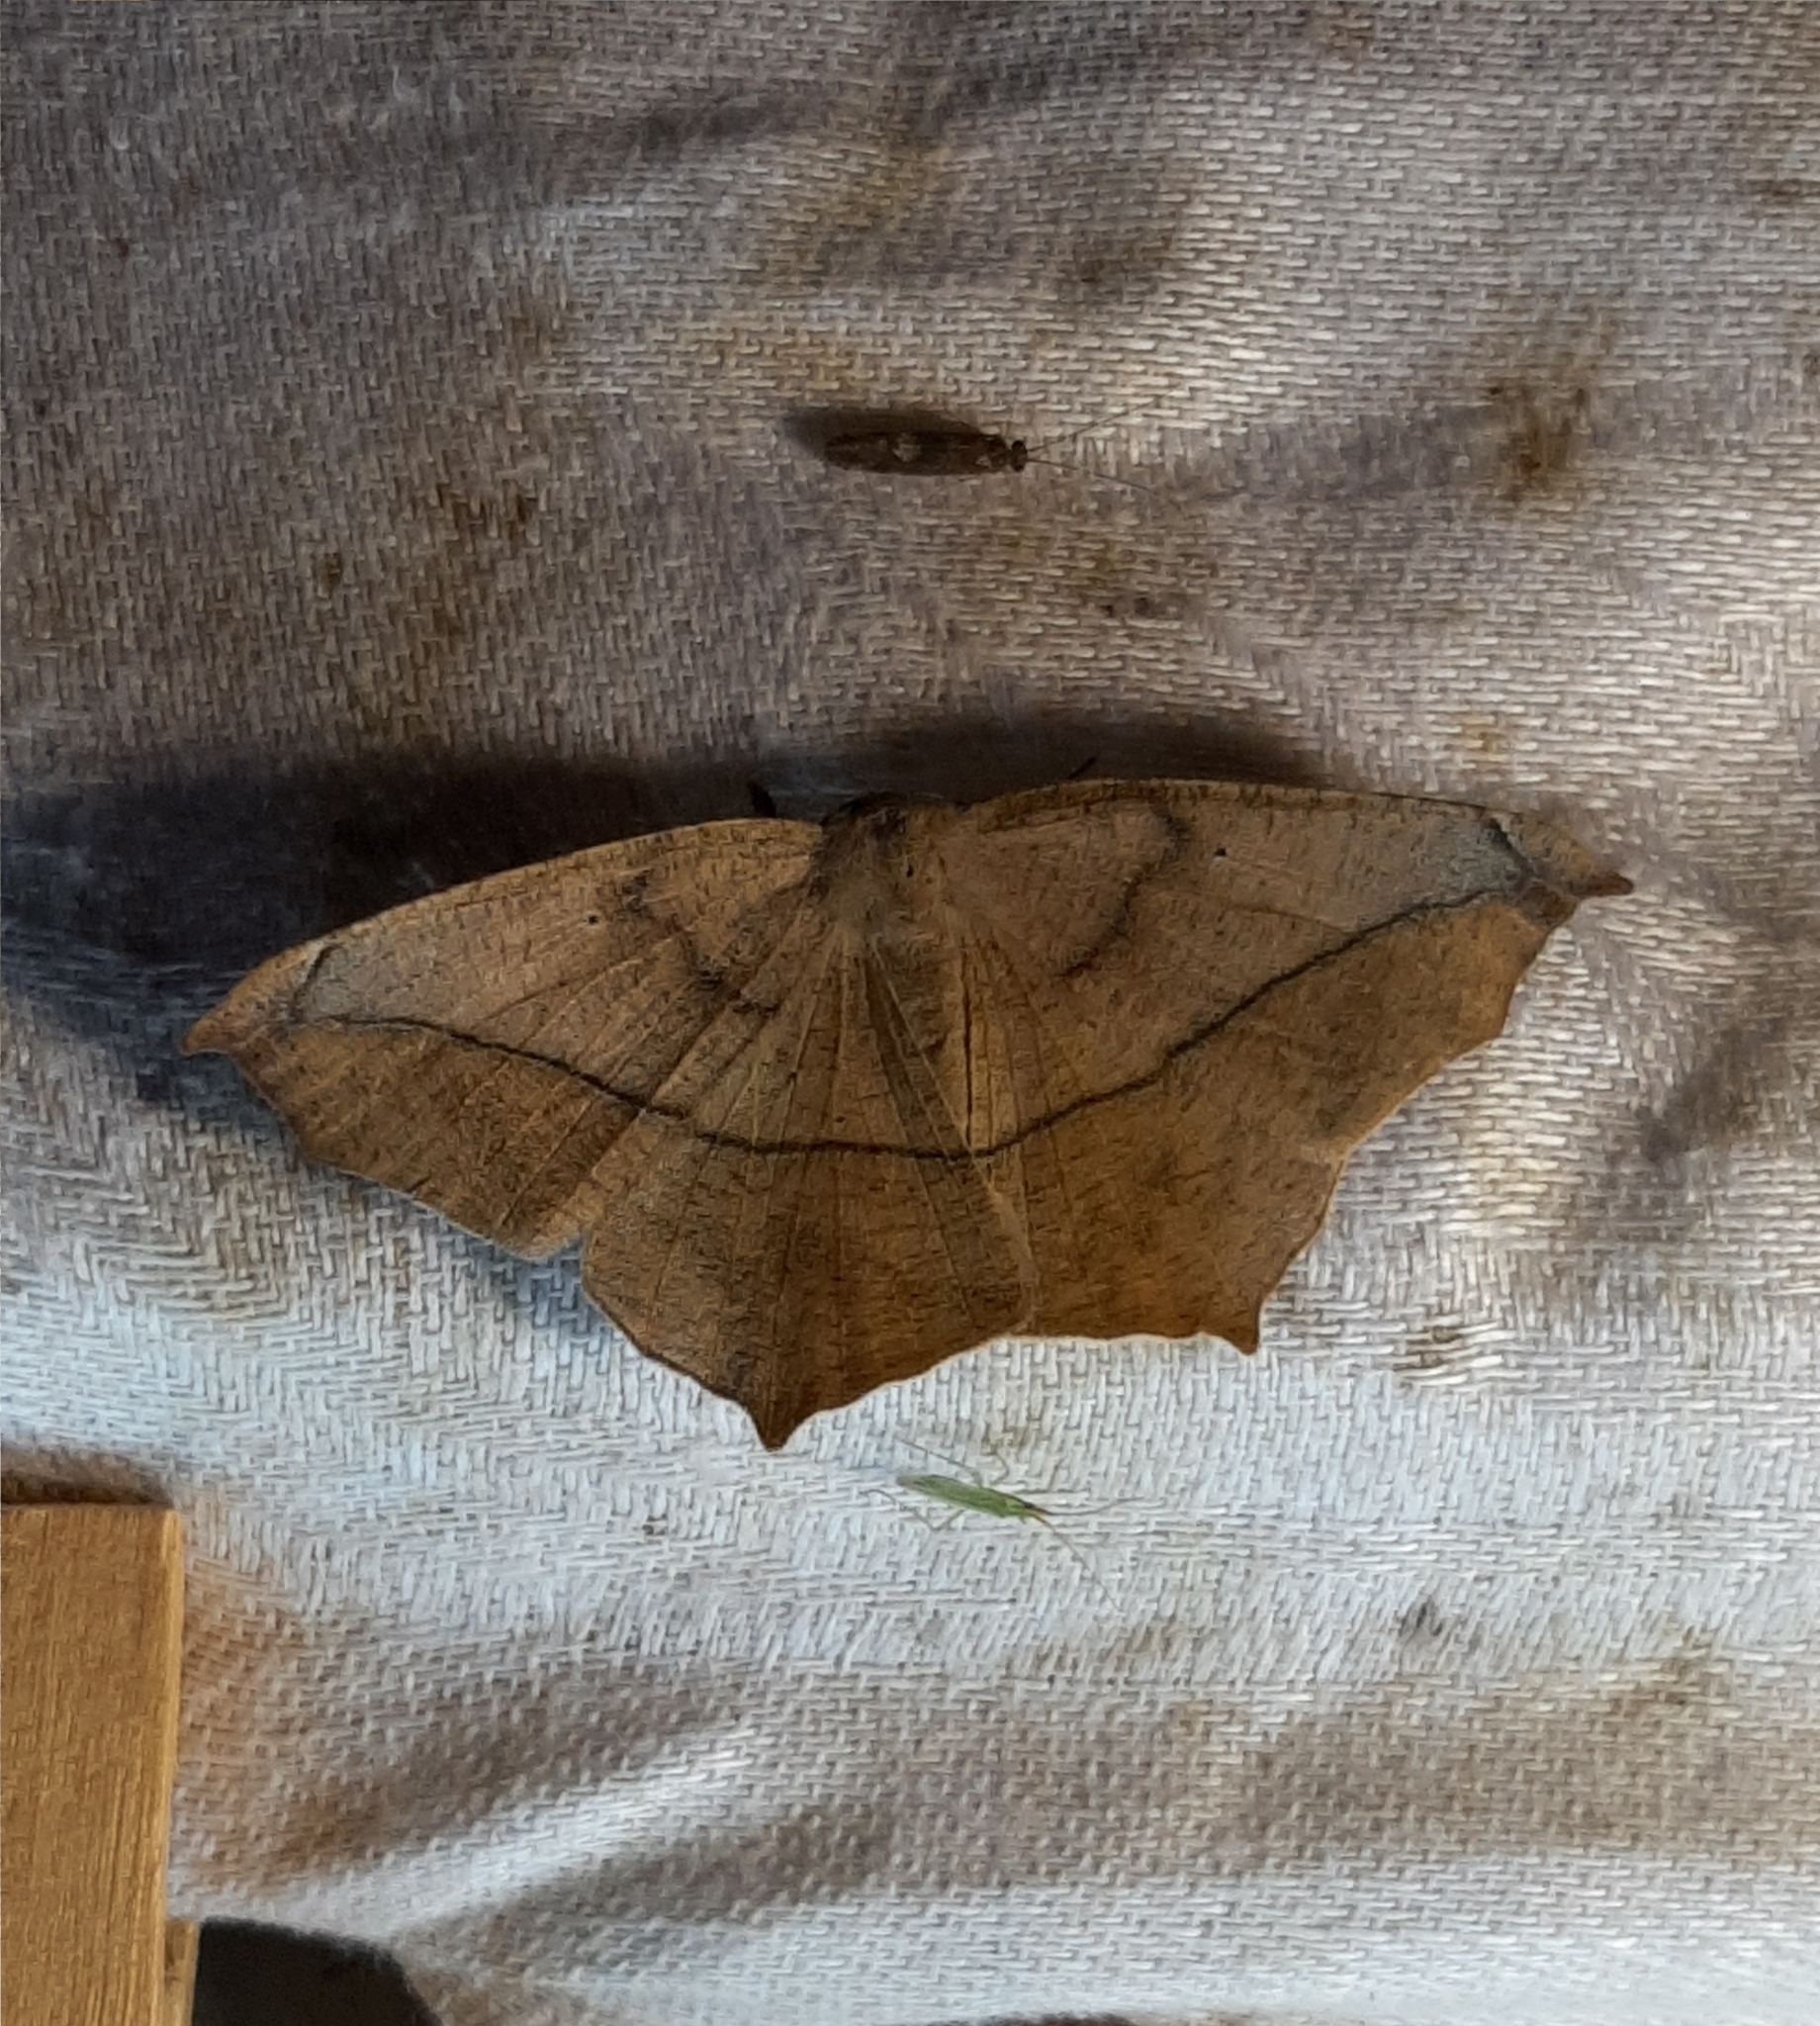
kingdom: Animalia
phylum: Arthropoda
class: Insecta
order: Lepidoptera
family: Geometridae
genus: Prochoerodes
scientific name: Prochoerodes lineola
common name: Large maple spanworm
